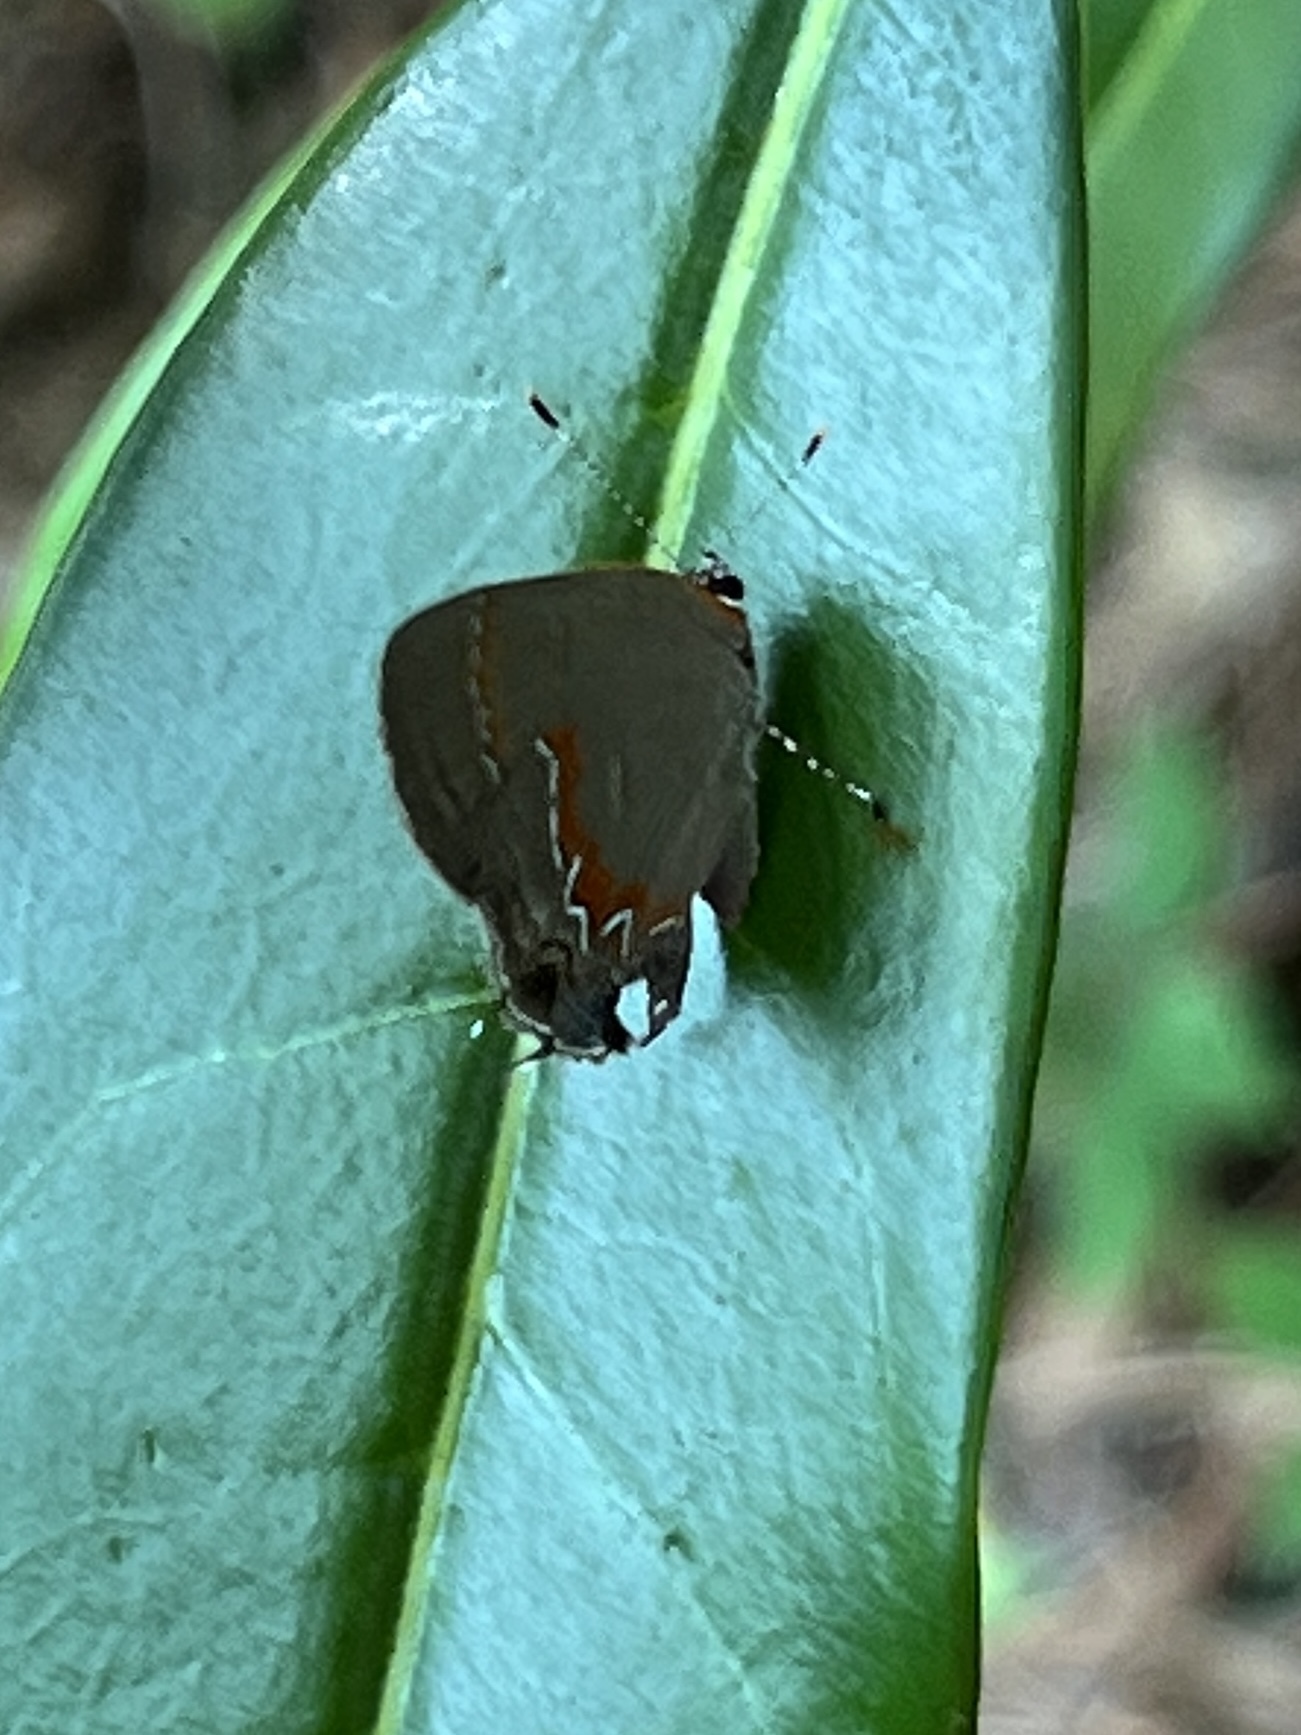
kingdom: Animalia
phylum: Arthropoda
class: Insecta
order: Lepidoptera
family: Lycaenidae
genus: Calycopis
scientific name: Calycopis cecrops
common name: Red-banded hairstreak
